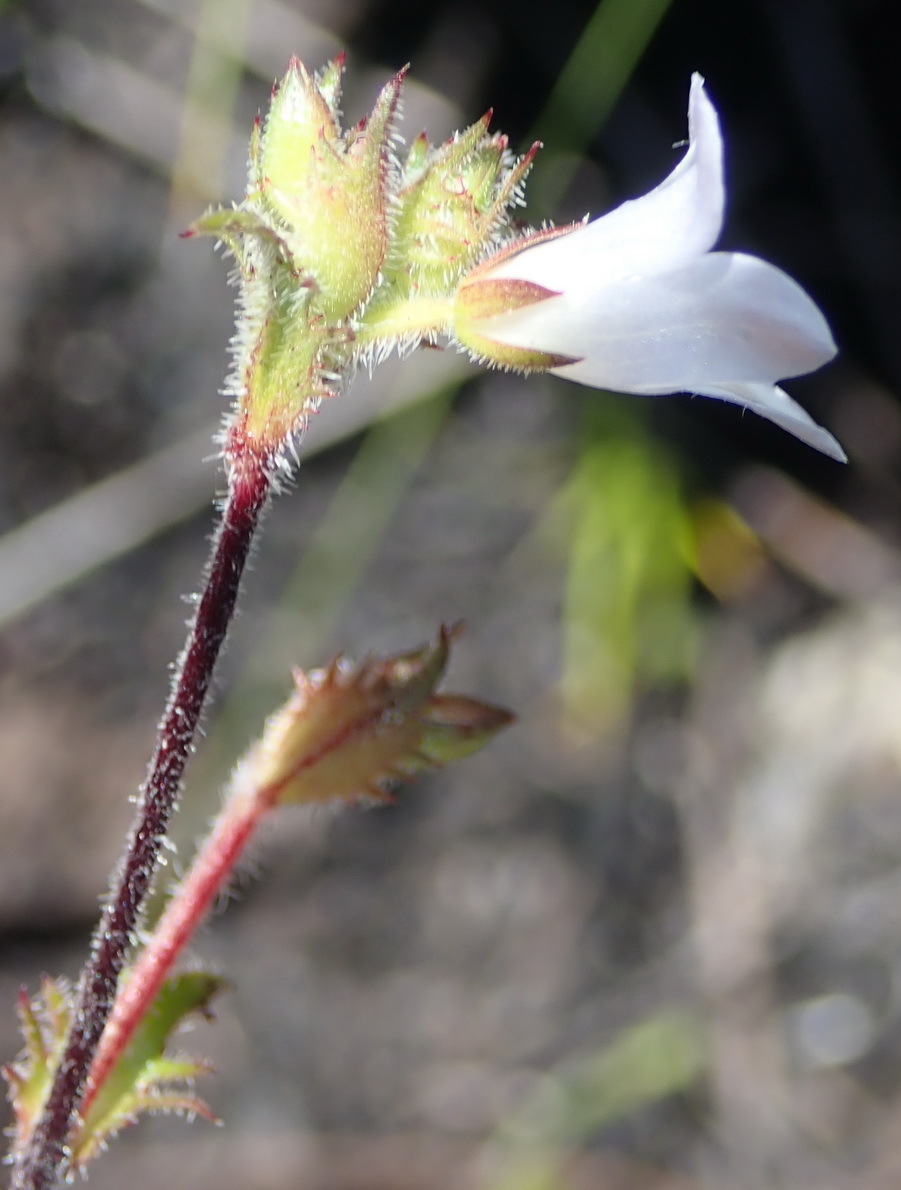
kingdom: Plantae
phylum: Tracheophyta
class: Magnoliopsida
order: Asterales
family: Campanulaceae
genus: Prismatocarpus
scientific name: Prismatocarpus rogersii
